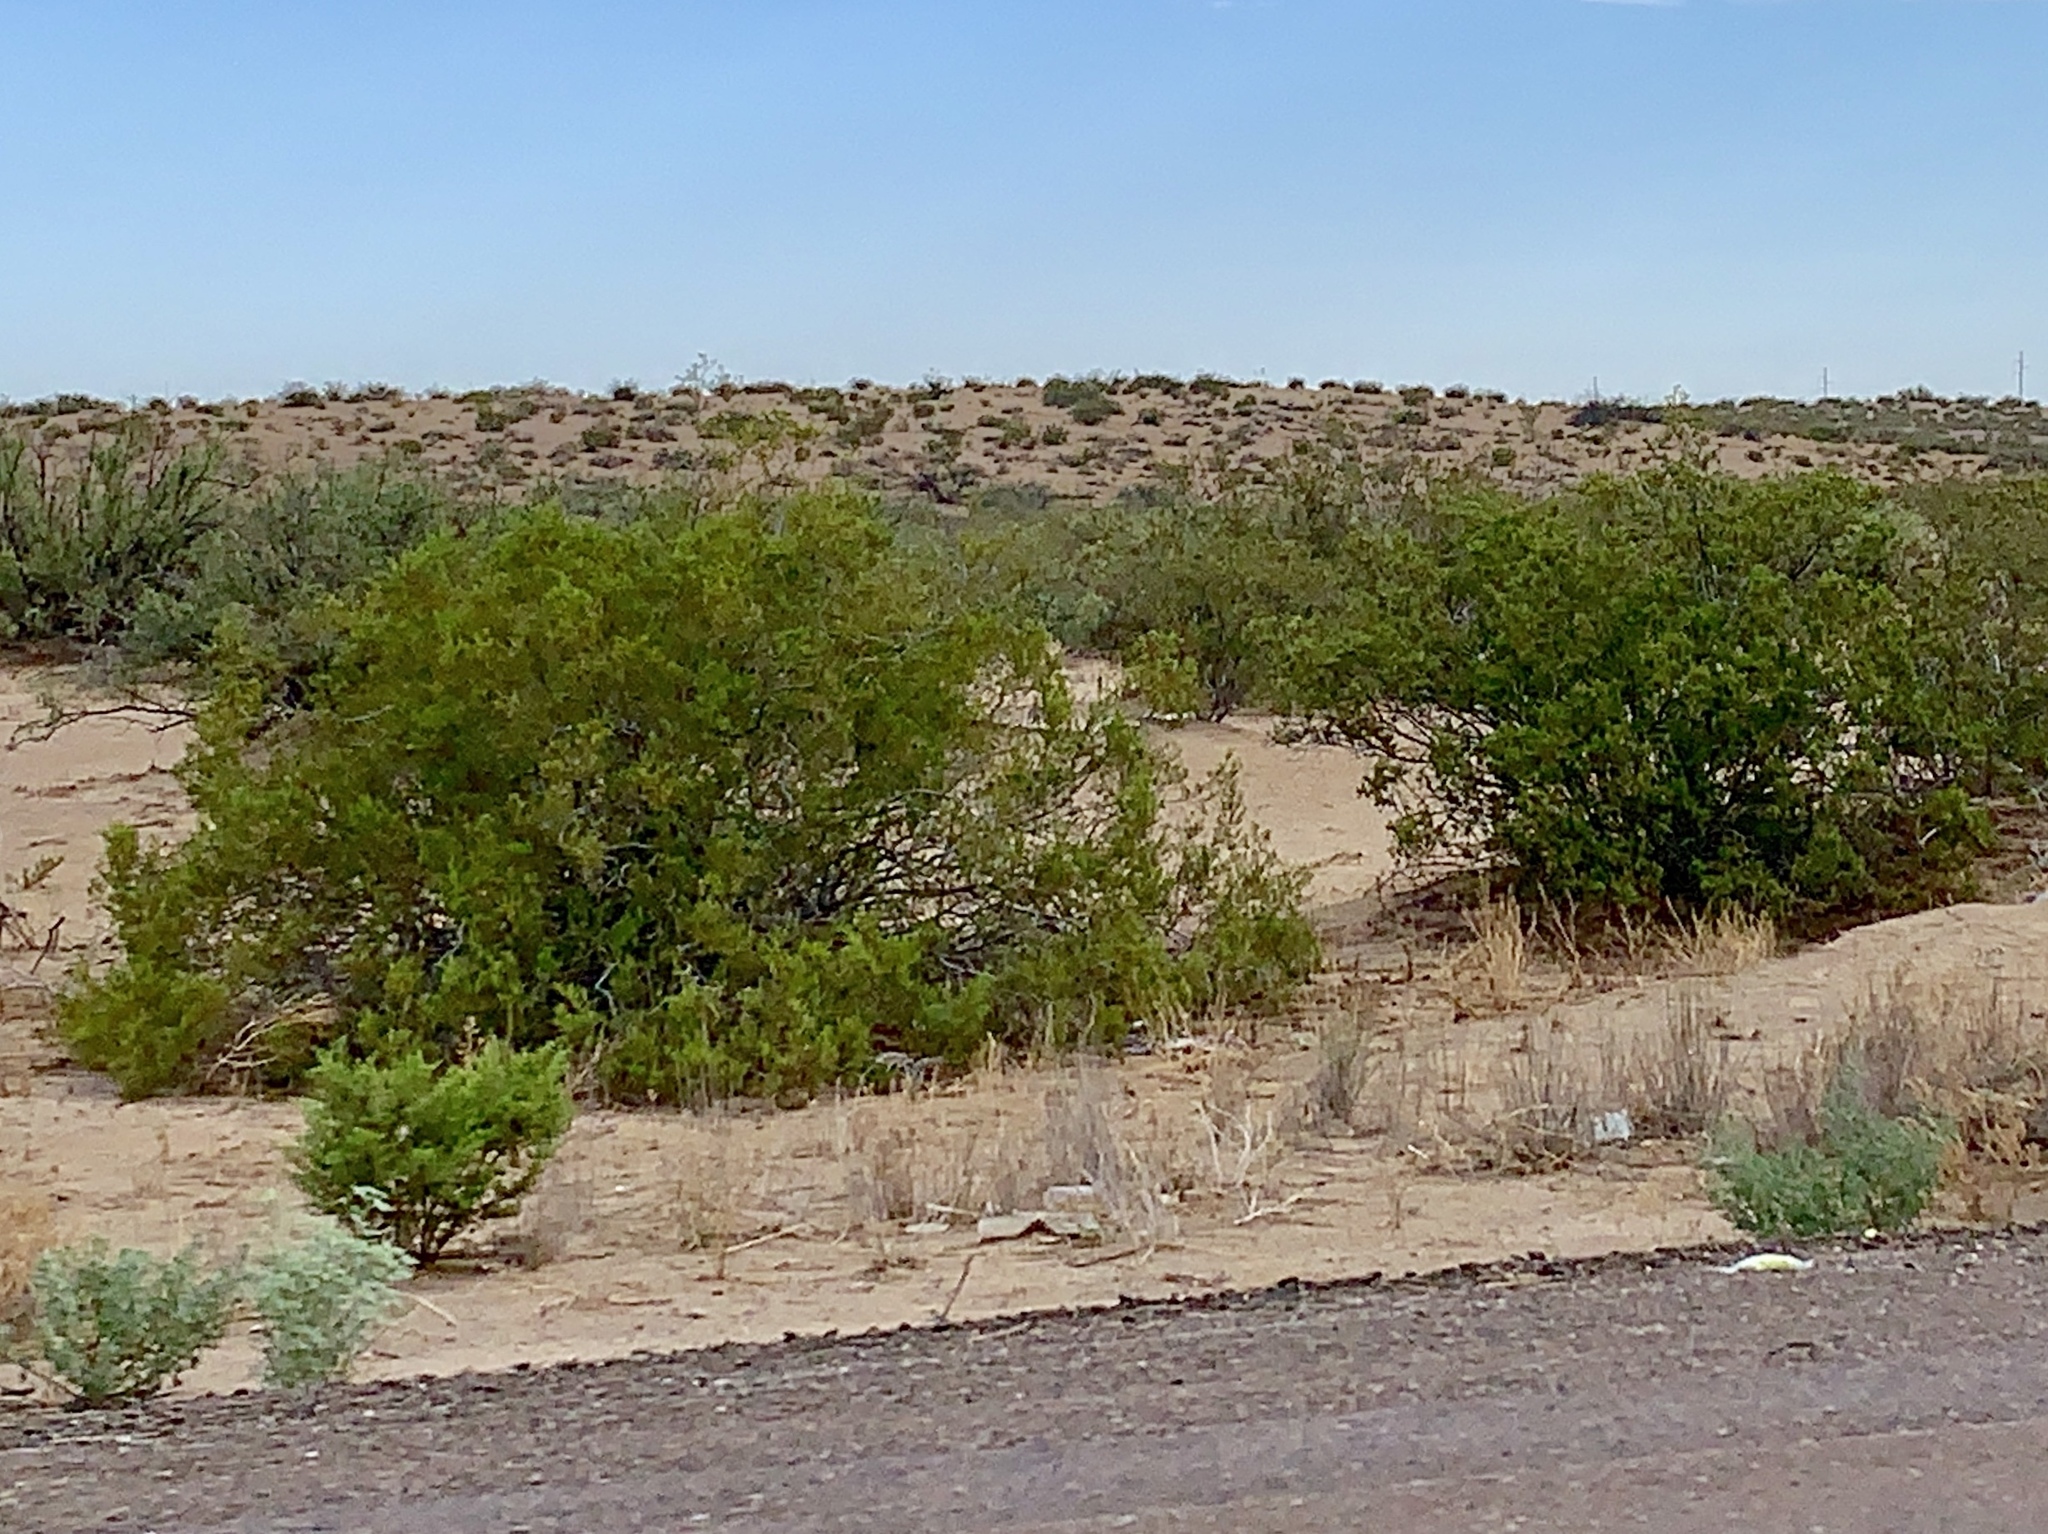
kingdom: Plantae
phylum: Tracheophyta
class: Magnoliopsida
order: Zygophyllales
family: Zygophyllaceae
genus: Larrea
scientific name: Larrea tridentata
